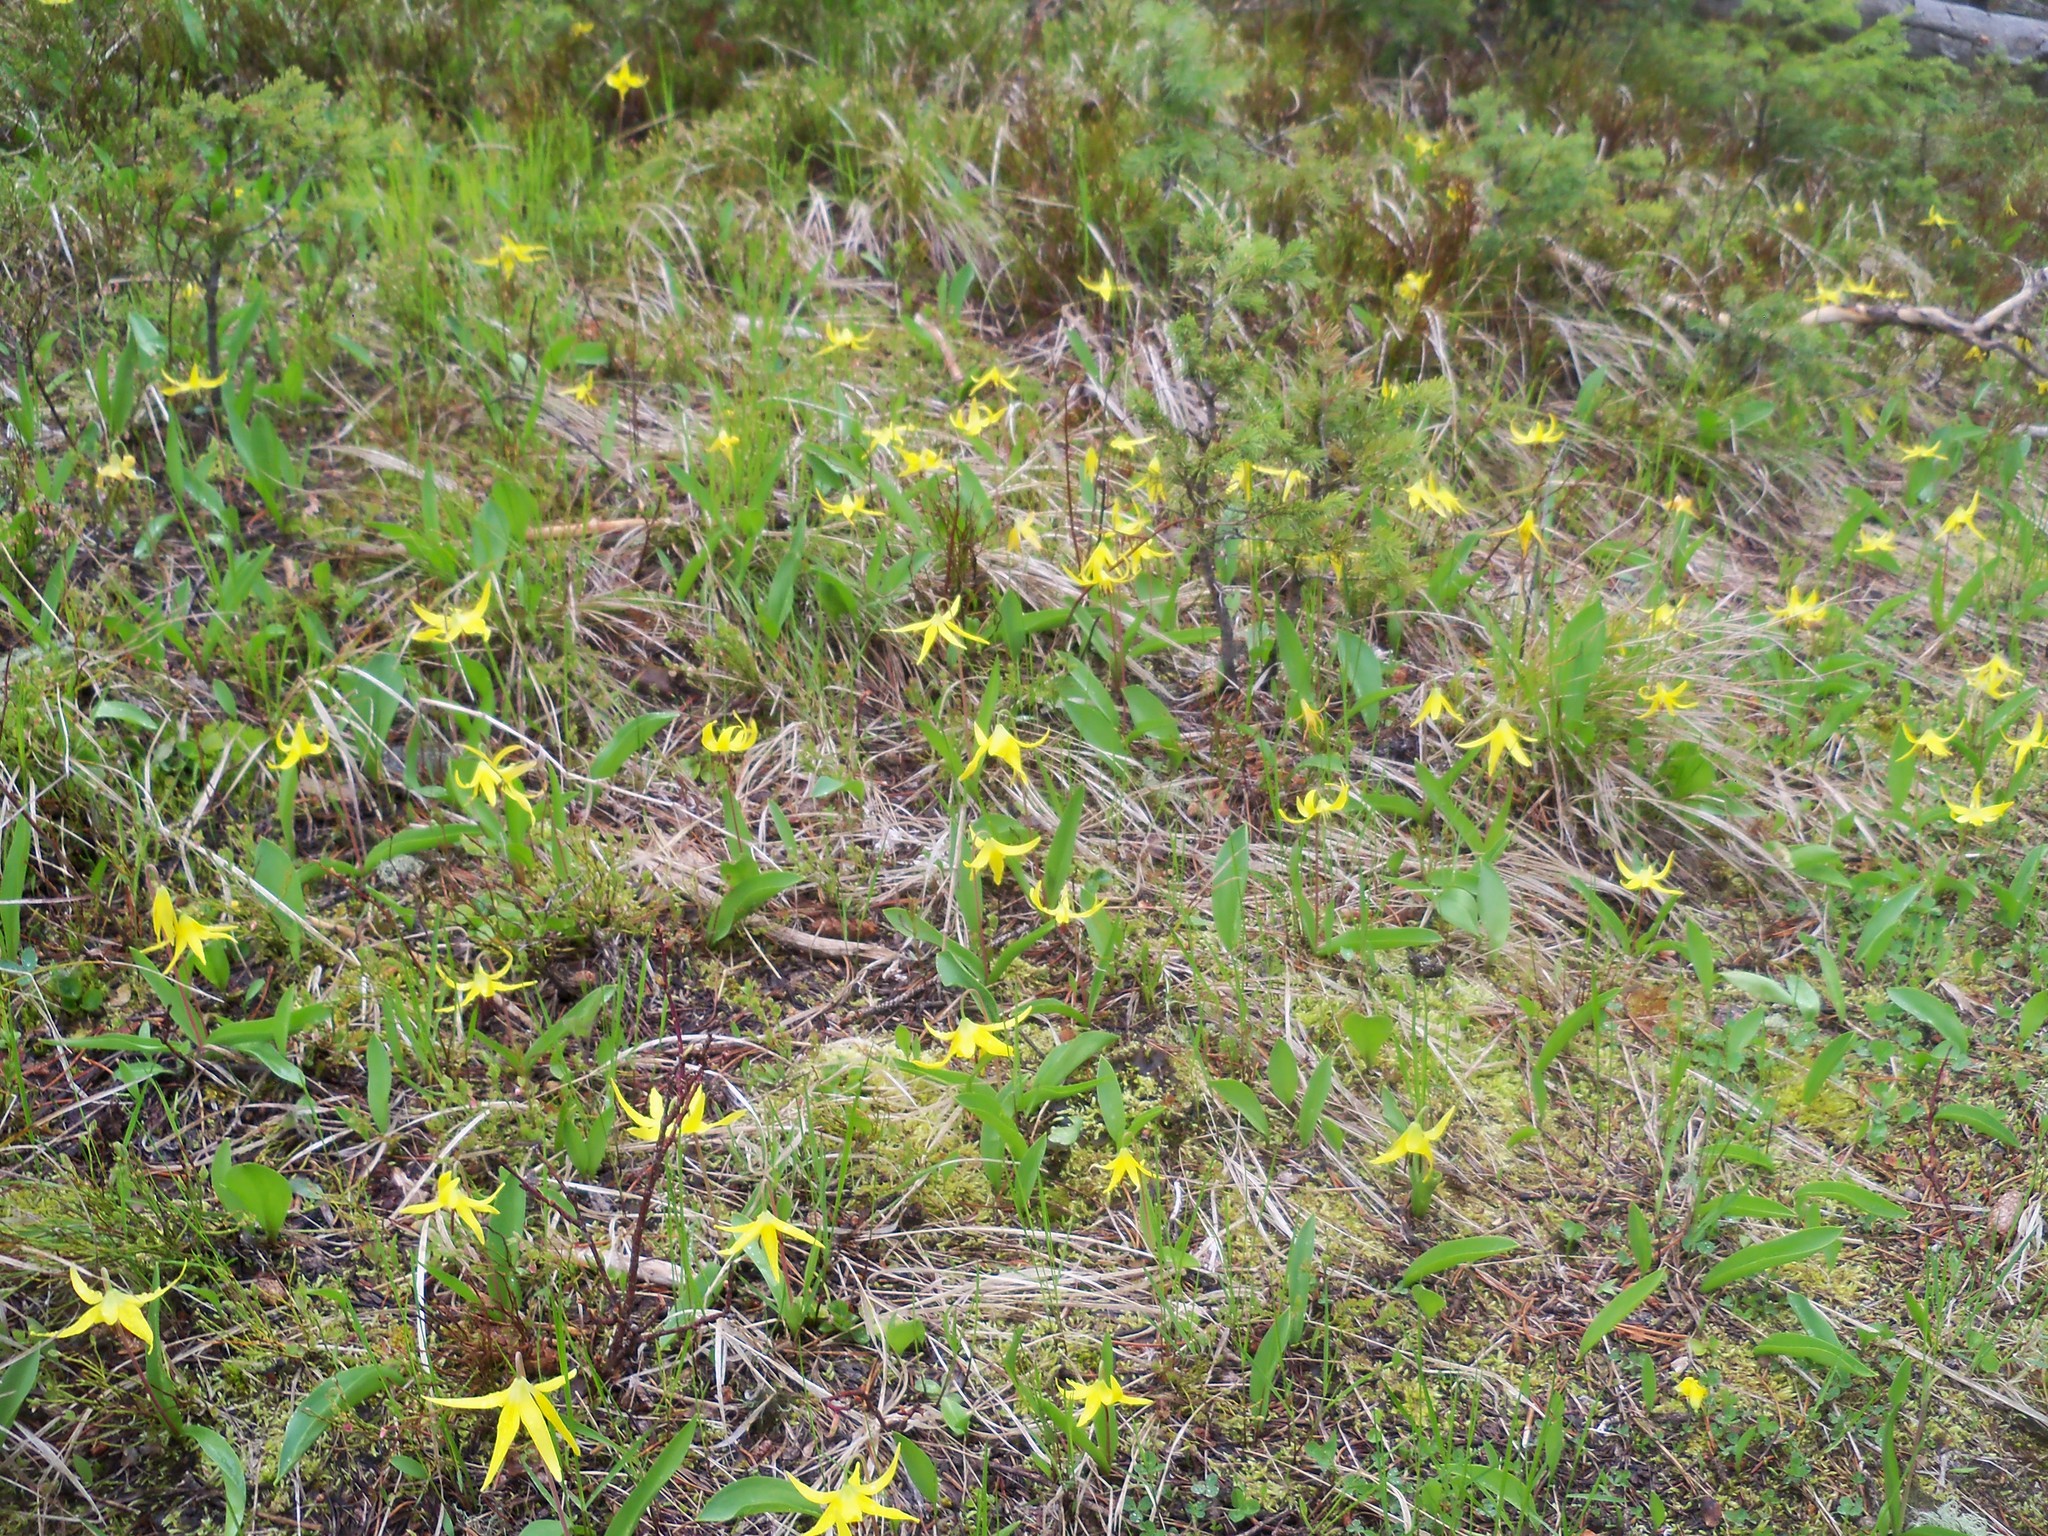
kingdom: Plantae
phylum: Tracheophyta
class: Liliopsida
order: Liliales
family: Liliaceae
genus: Erythronium
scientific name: Erythronium grandiflorum
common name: Avalanche-lily
